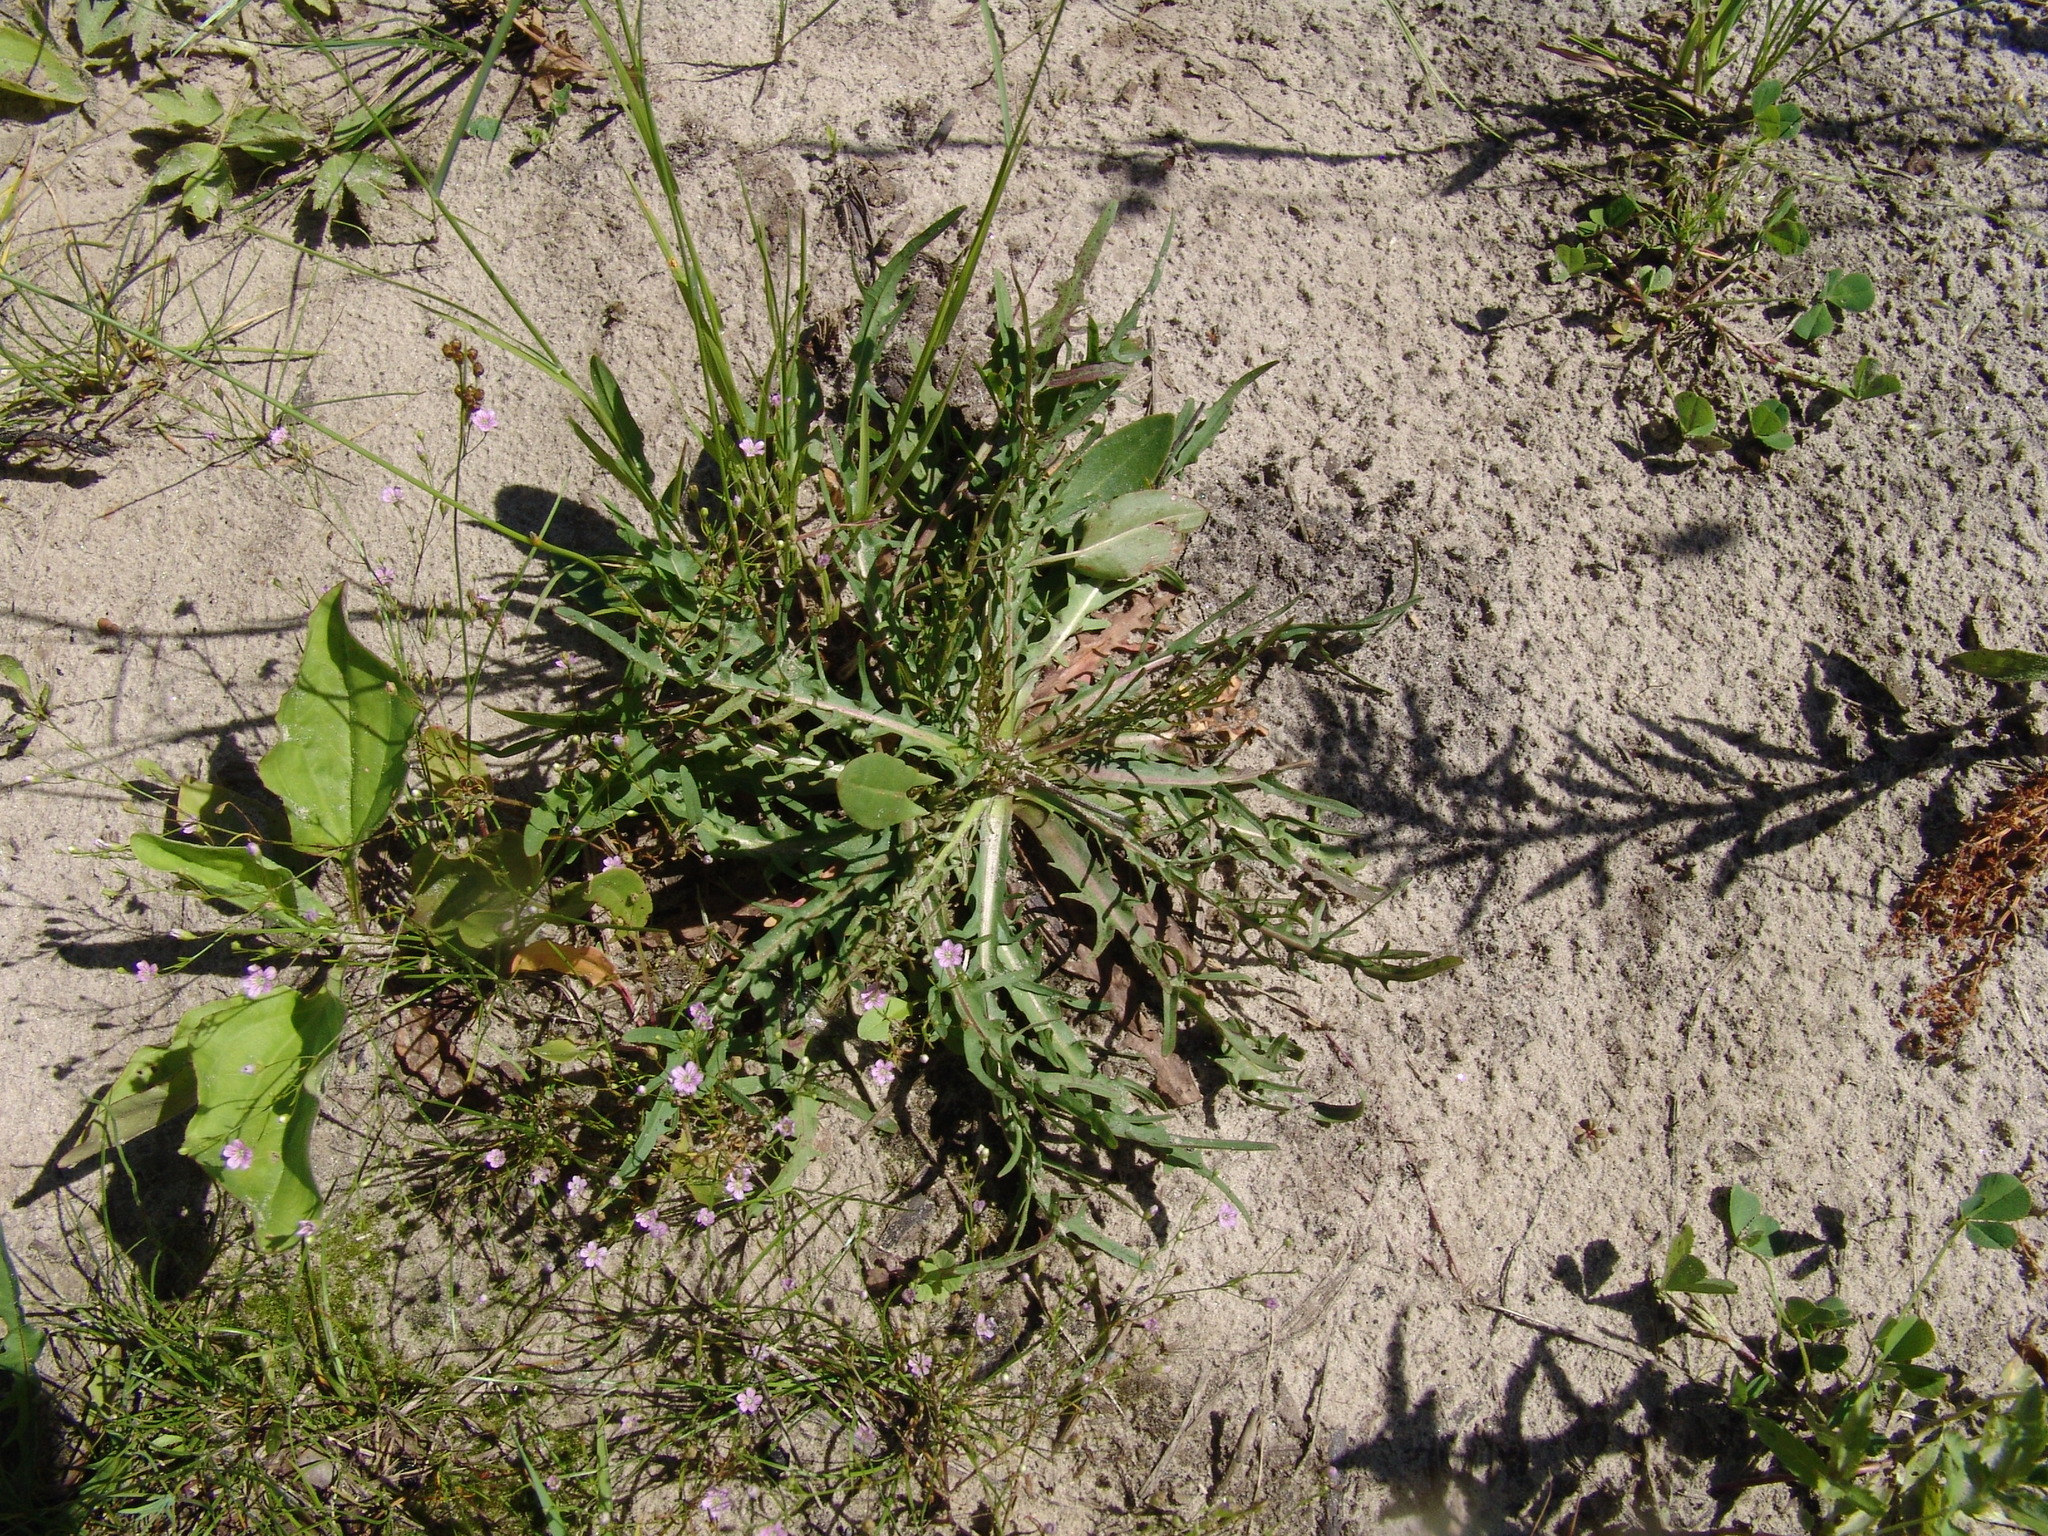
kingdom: Plantae
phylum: Tracheophyta
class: Magnoliopsida
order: Asterales
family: Asteraceae
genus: Scorzoneroides
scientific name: Scorzoneroides autumnalis
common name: Autumn hawkbit
